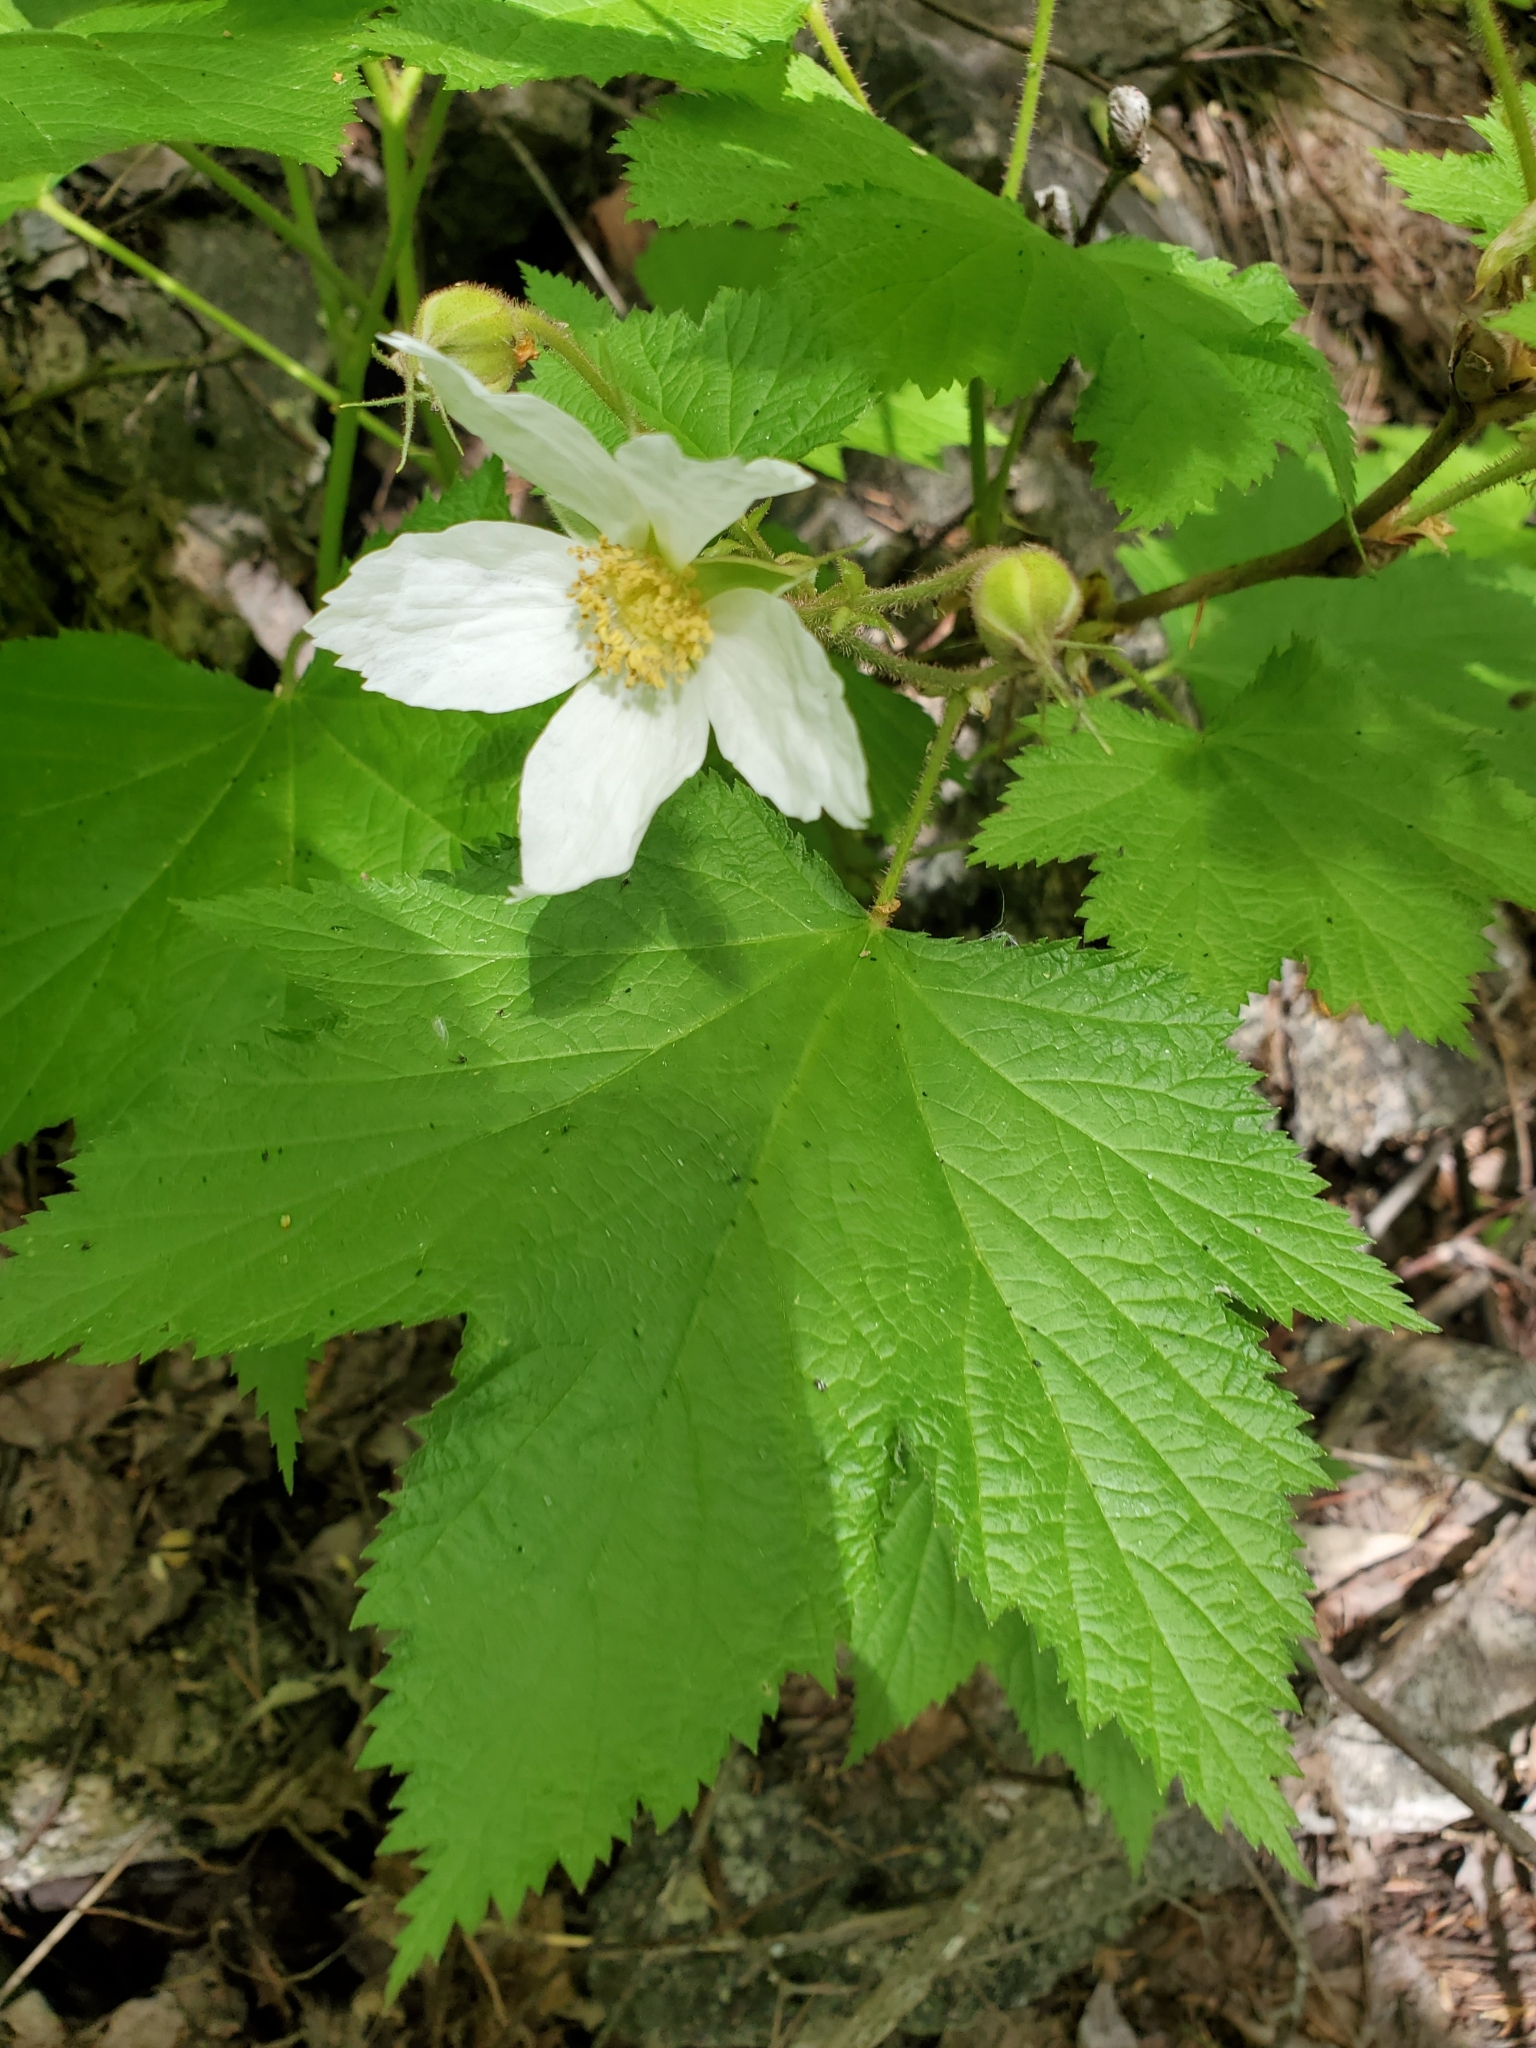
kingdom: Plantae
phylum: Tracheophyta
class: Magnoliopsida
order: Rosales
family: Rosaceae
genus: Rubus
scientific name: Rubus parviflorus
